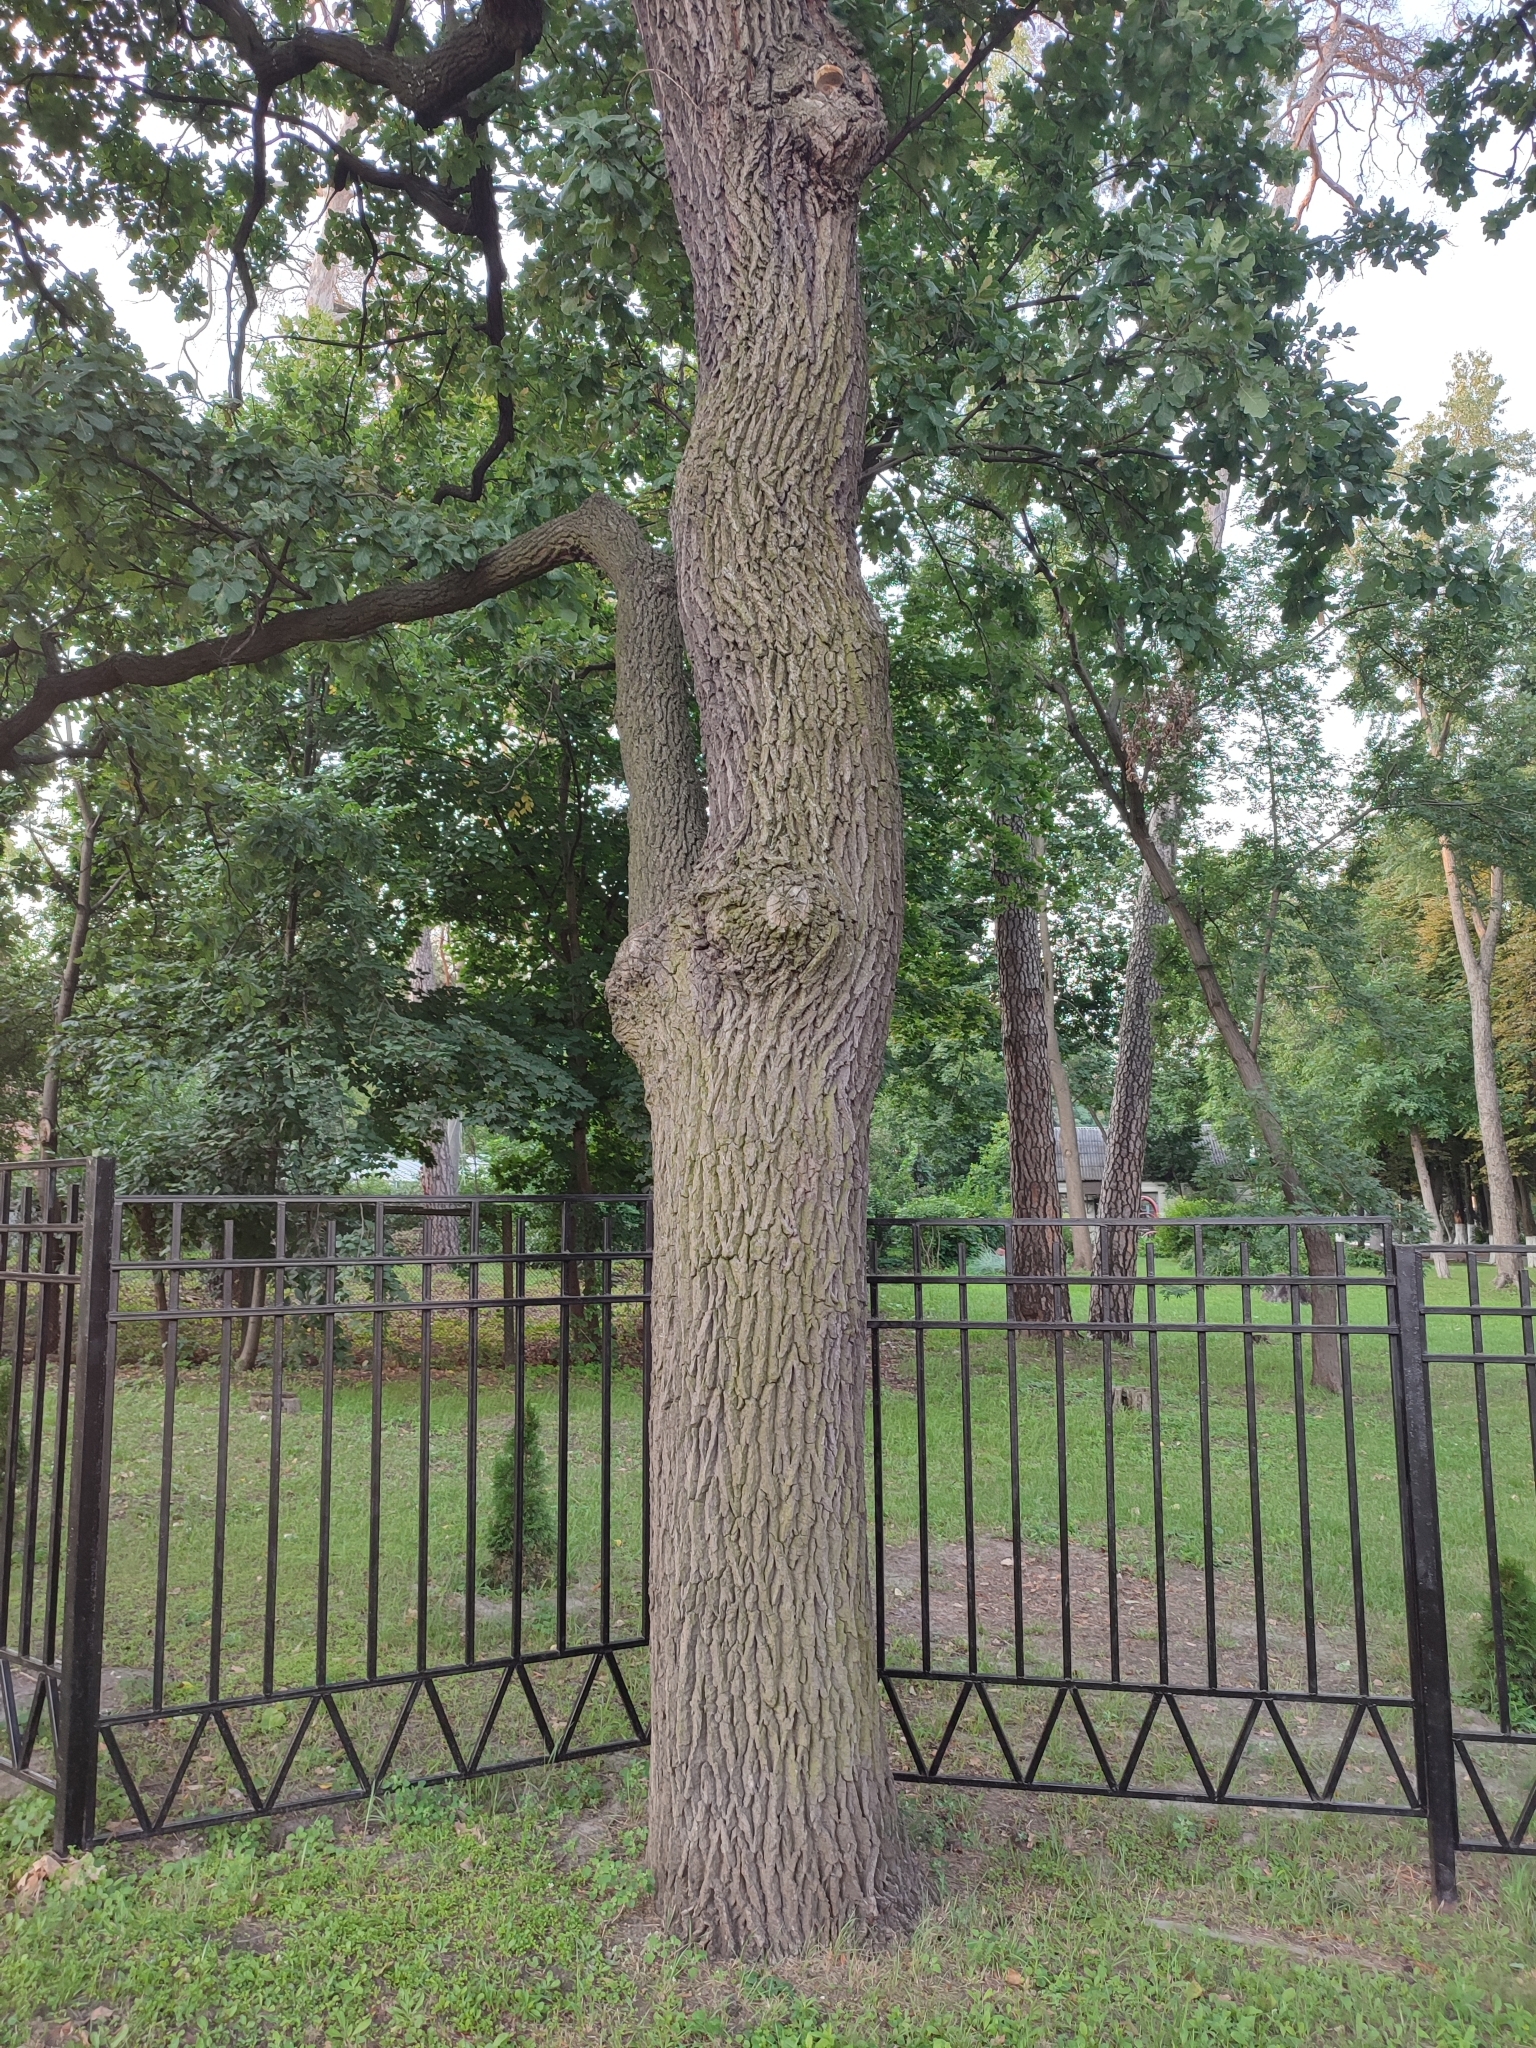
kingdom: Plantae
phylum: Tracheophyta
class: Magnoliopsida
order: Fagales
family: Fagaceae
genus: Quercus
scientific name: Quercus robur
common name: Pedunculate oak
